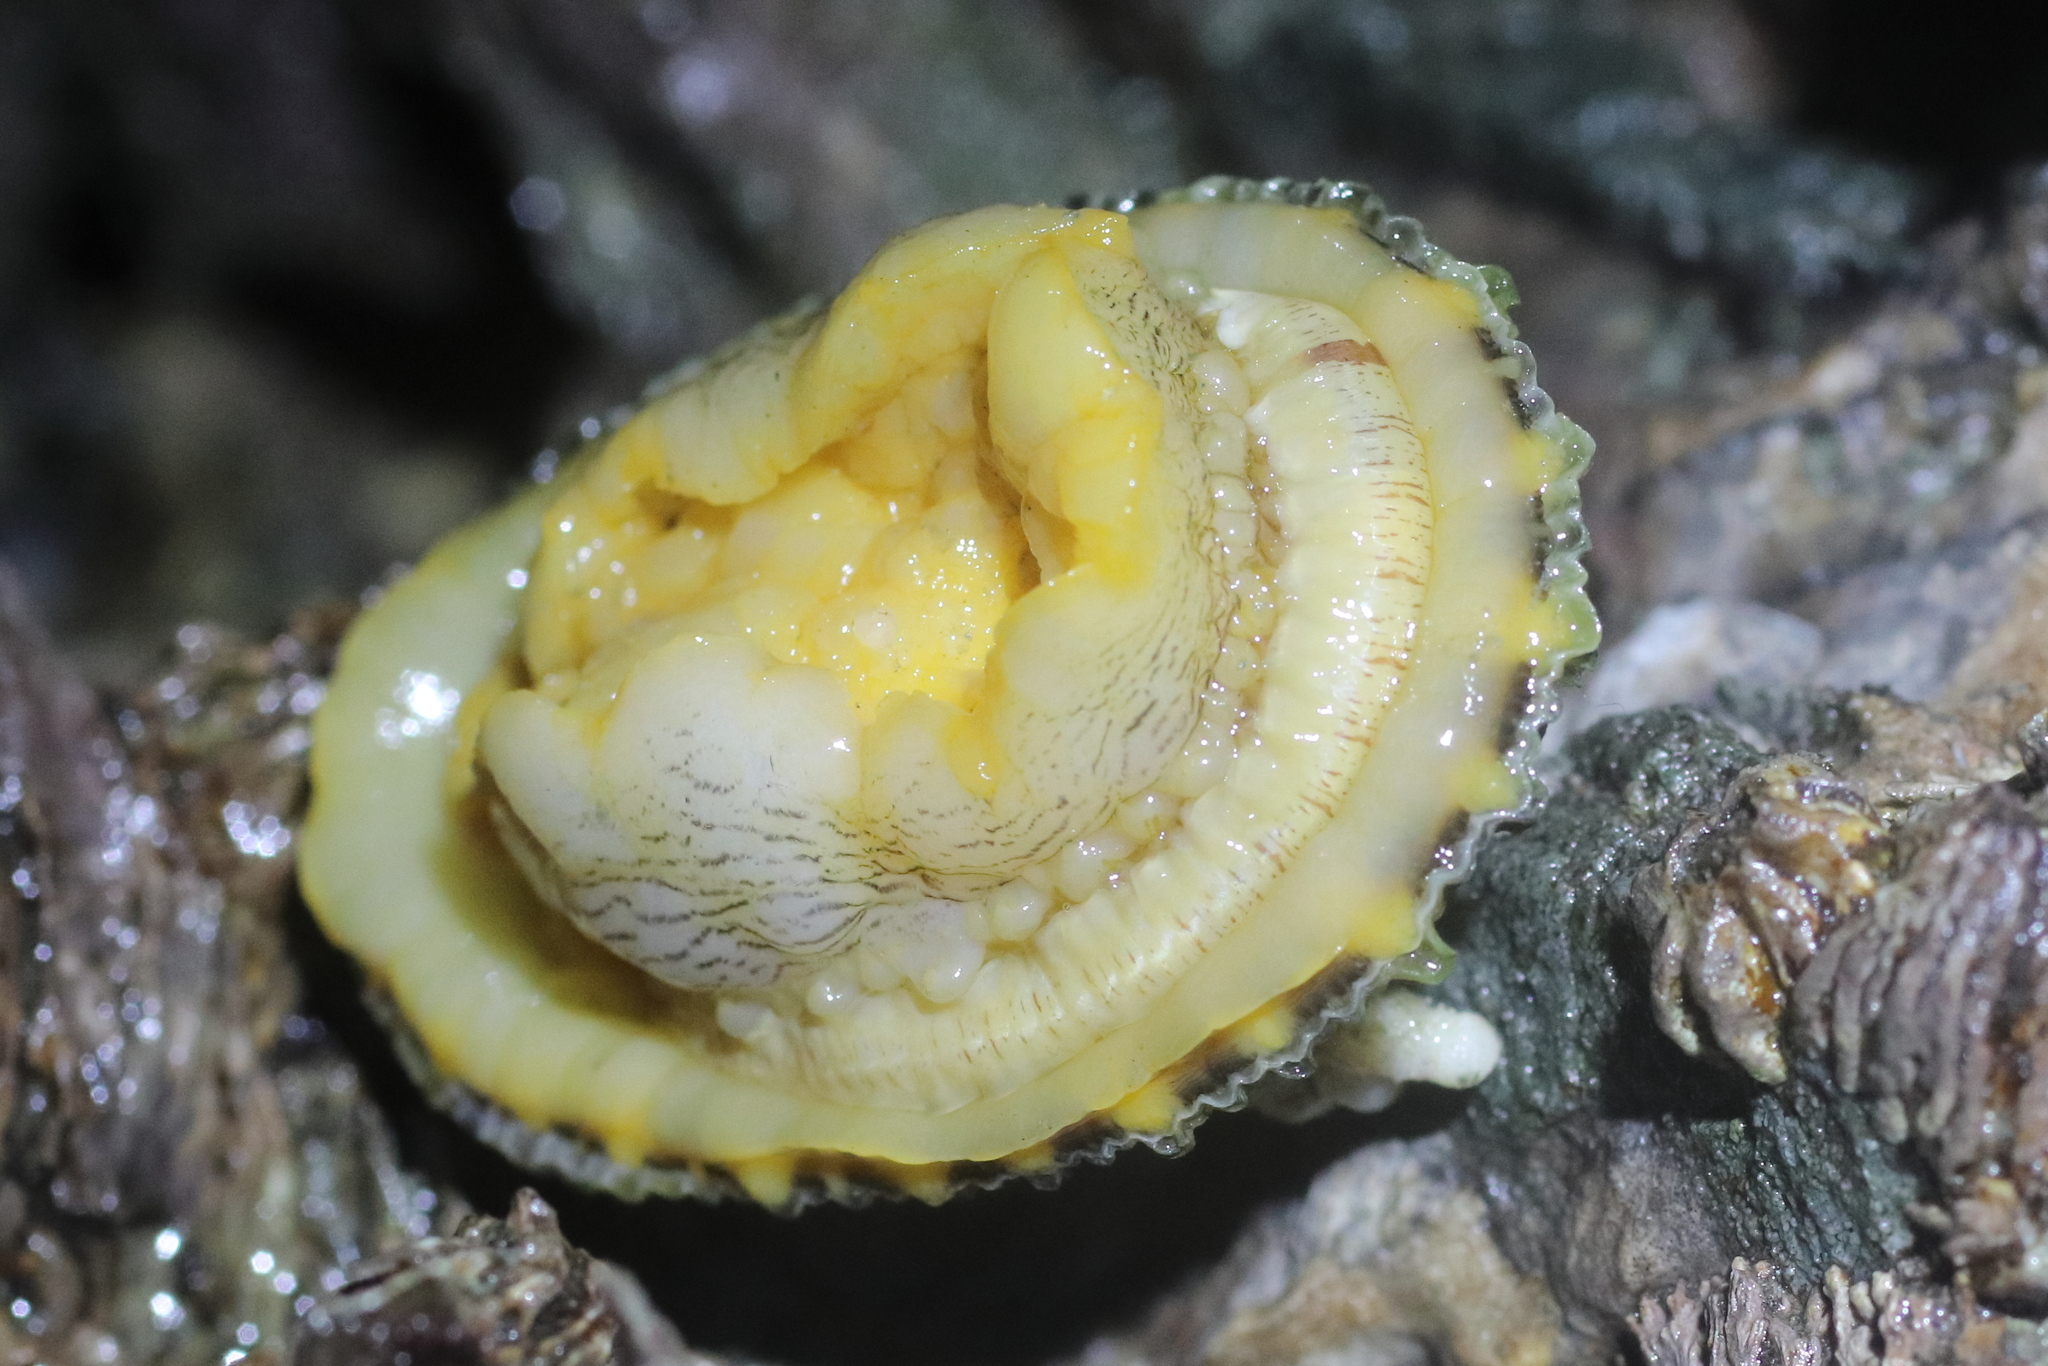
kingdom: Animalia
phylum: Annelida
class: Polychaeta
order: Phyllodocida
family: Polynoidae
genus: Arctonoe
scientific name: Arctonoe vittata
